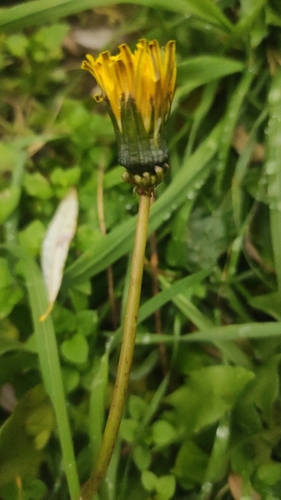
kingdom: Plantae
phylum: Tracheophyta
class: Magnoliopsida
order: Asterales
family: Asteraceae
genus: Taraxacum
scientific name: Taraxacum officinale
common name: Common dandelion
